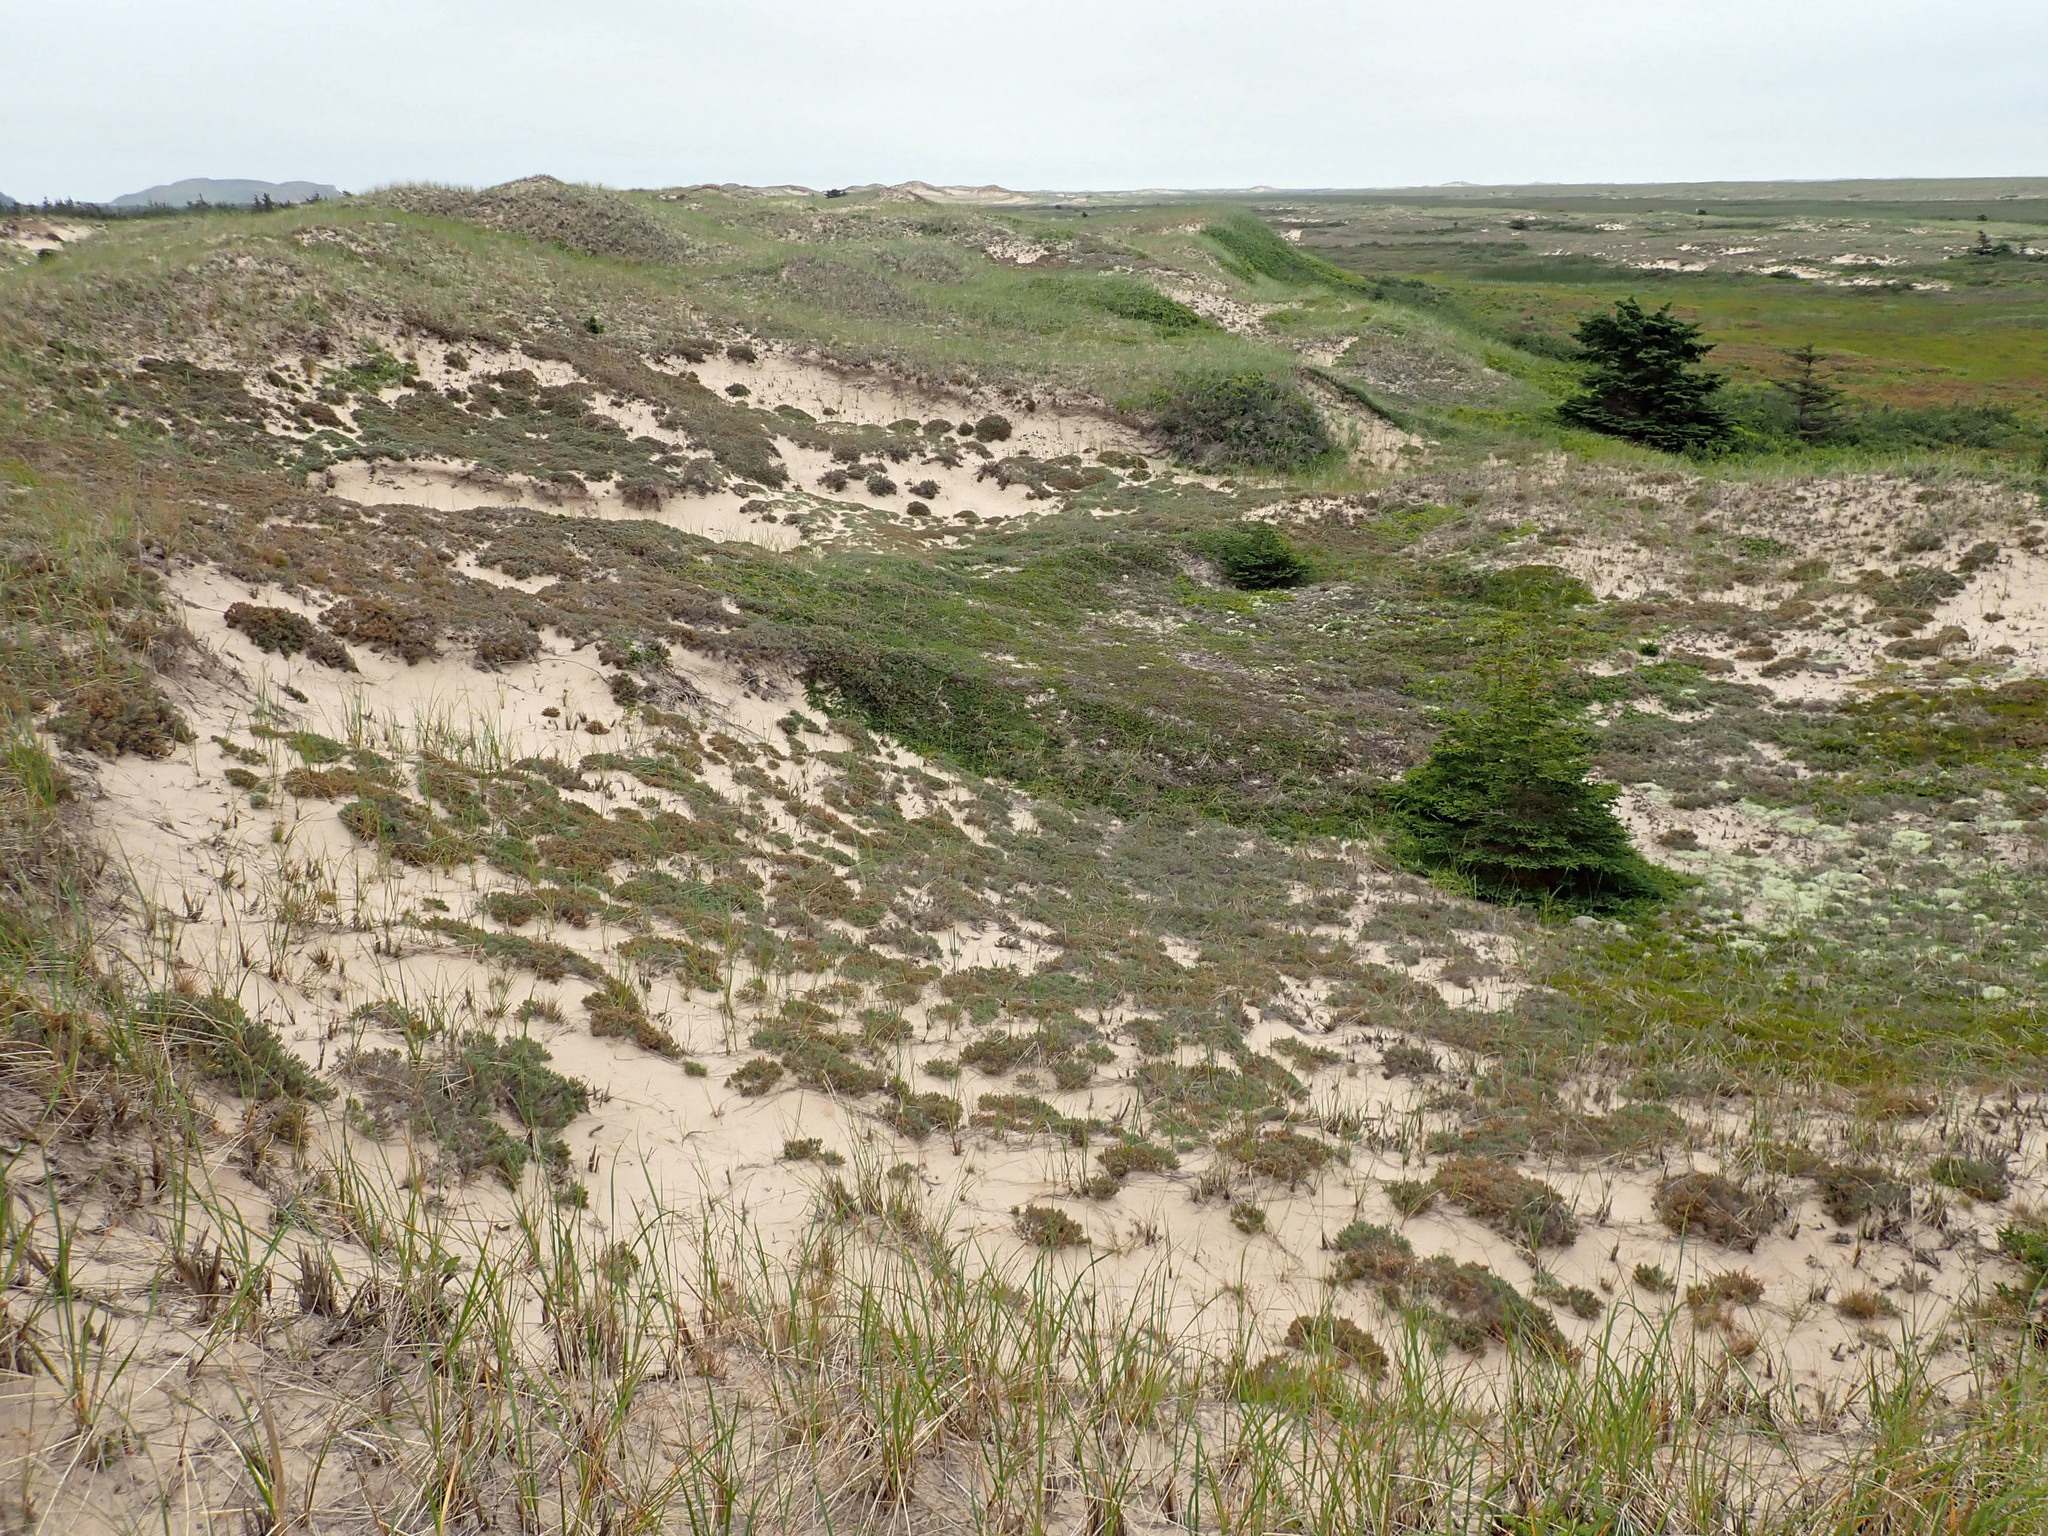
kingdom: Plantae
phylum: Tracheophyta
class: Magnoliopsida
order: Malvales
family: Cistaceae
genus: Hudsonia
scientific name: Hudsonia tomentosa
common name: Beach-heath
